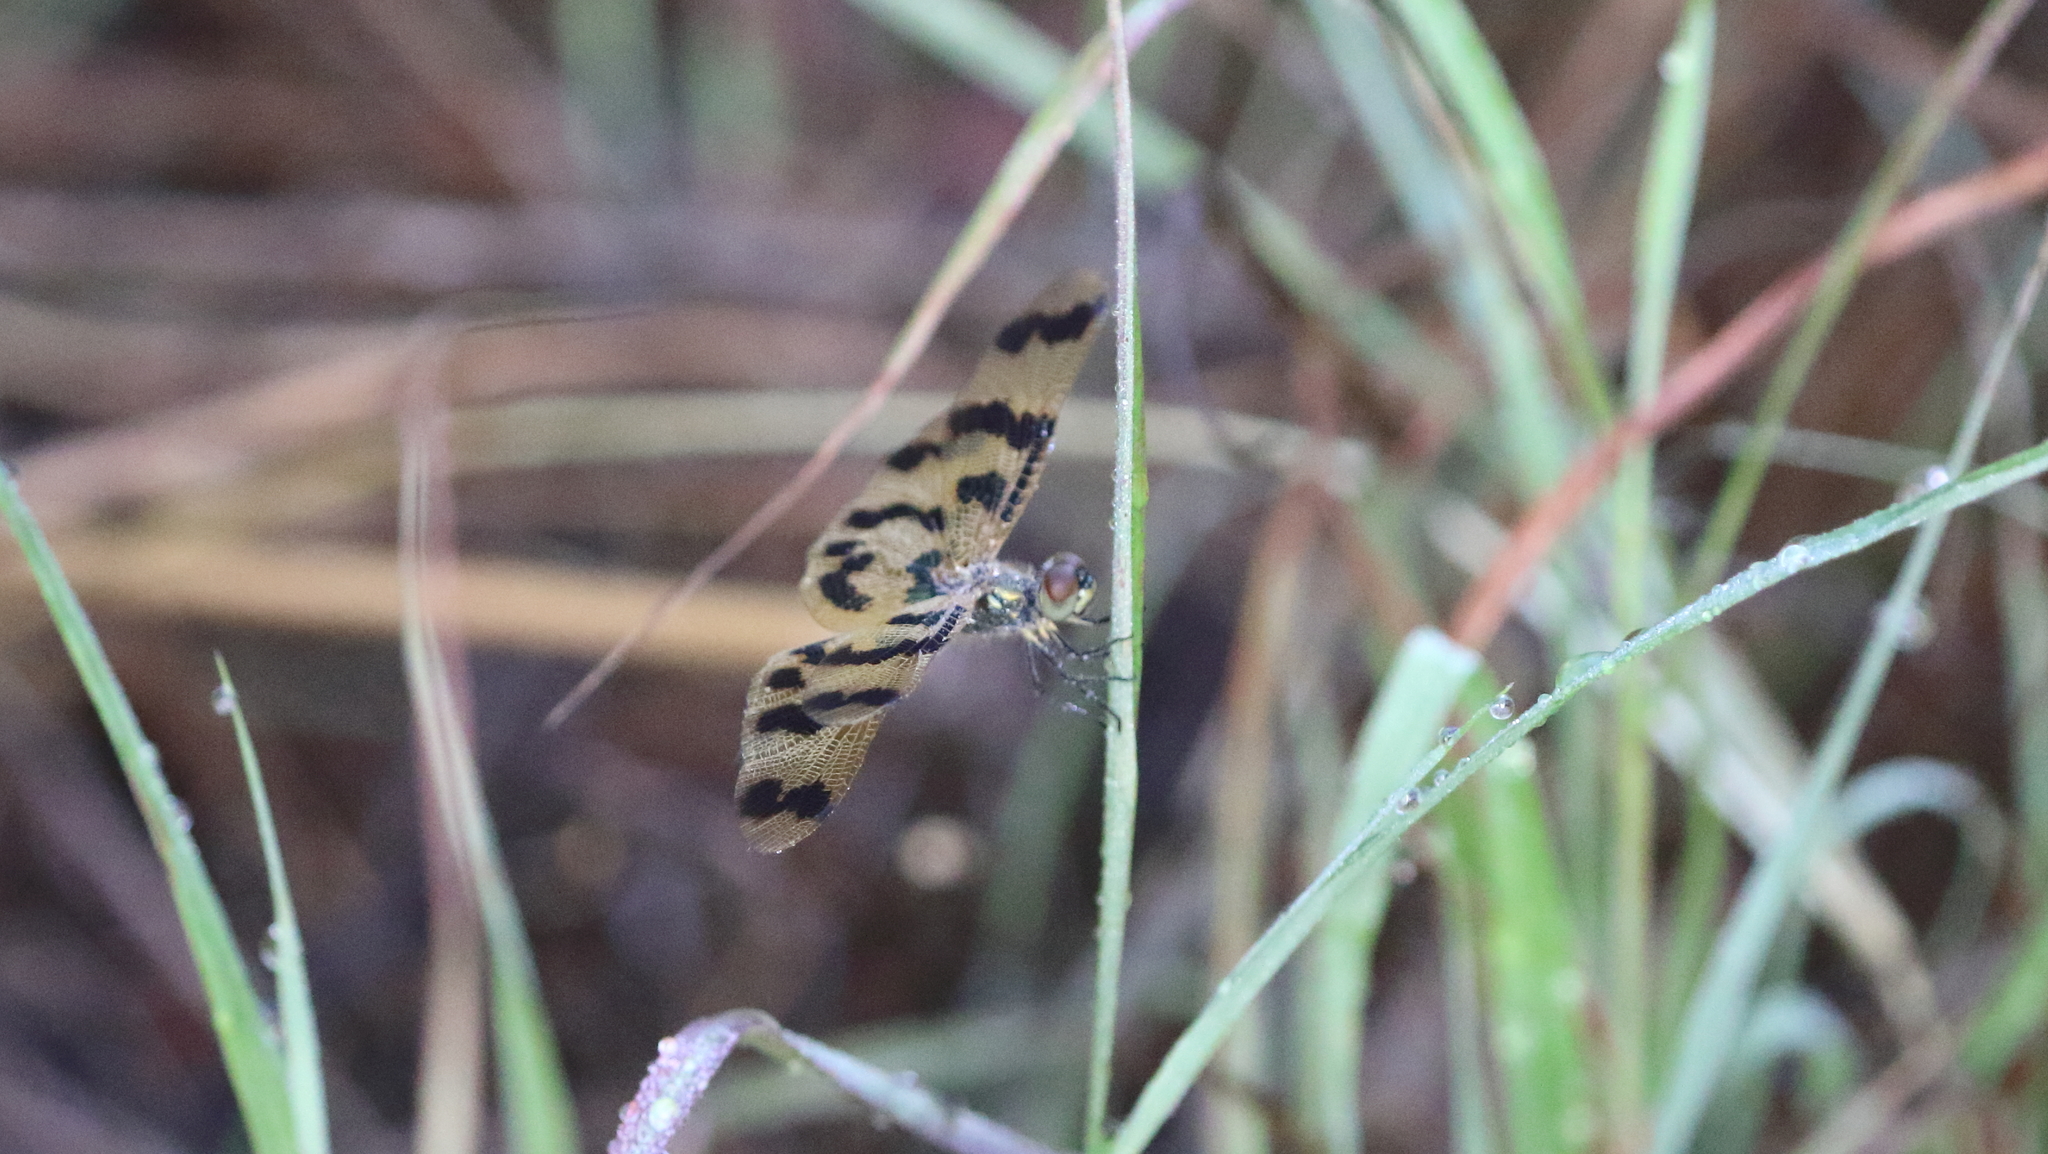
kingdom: Animalia
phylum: Arthropoda
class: Insecta
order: Odonata
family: Libellulidae
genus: Rhyothemis
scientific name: Rhyothemis graphiptera
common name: Graphic flutterer
